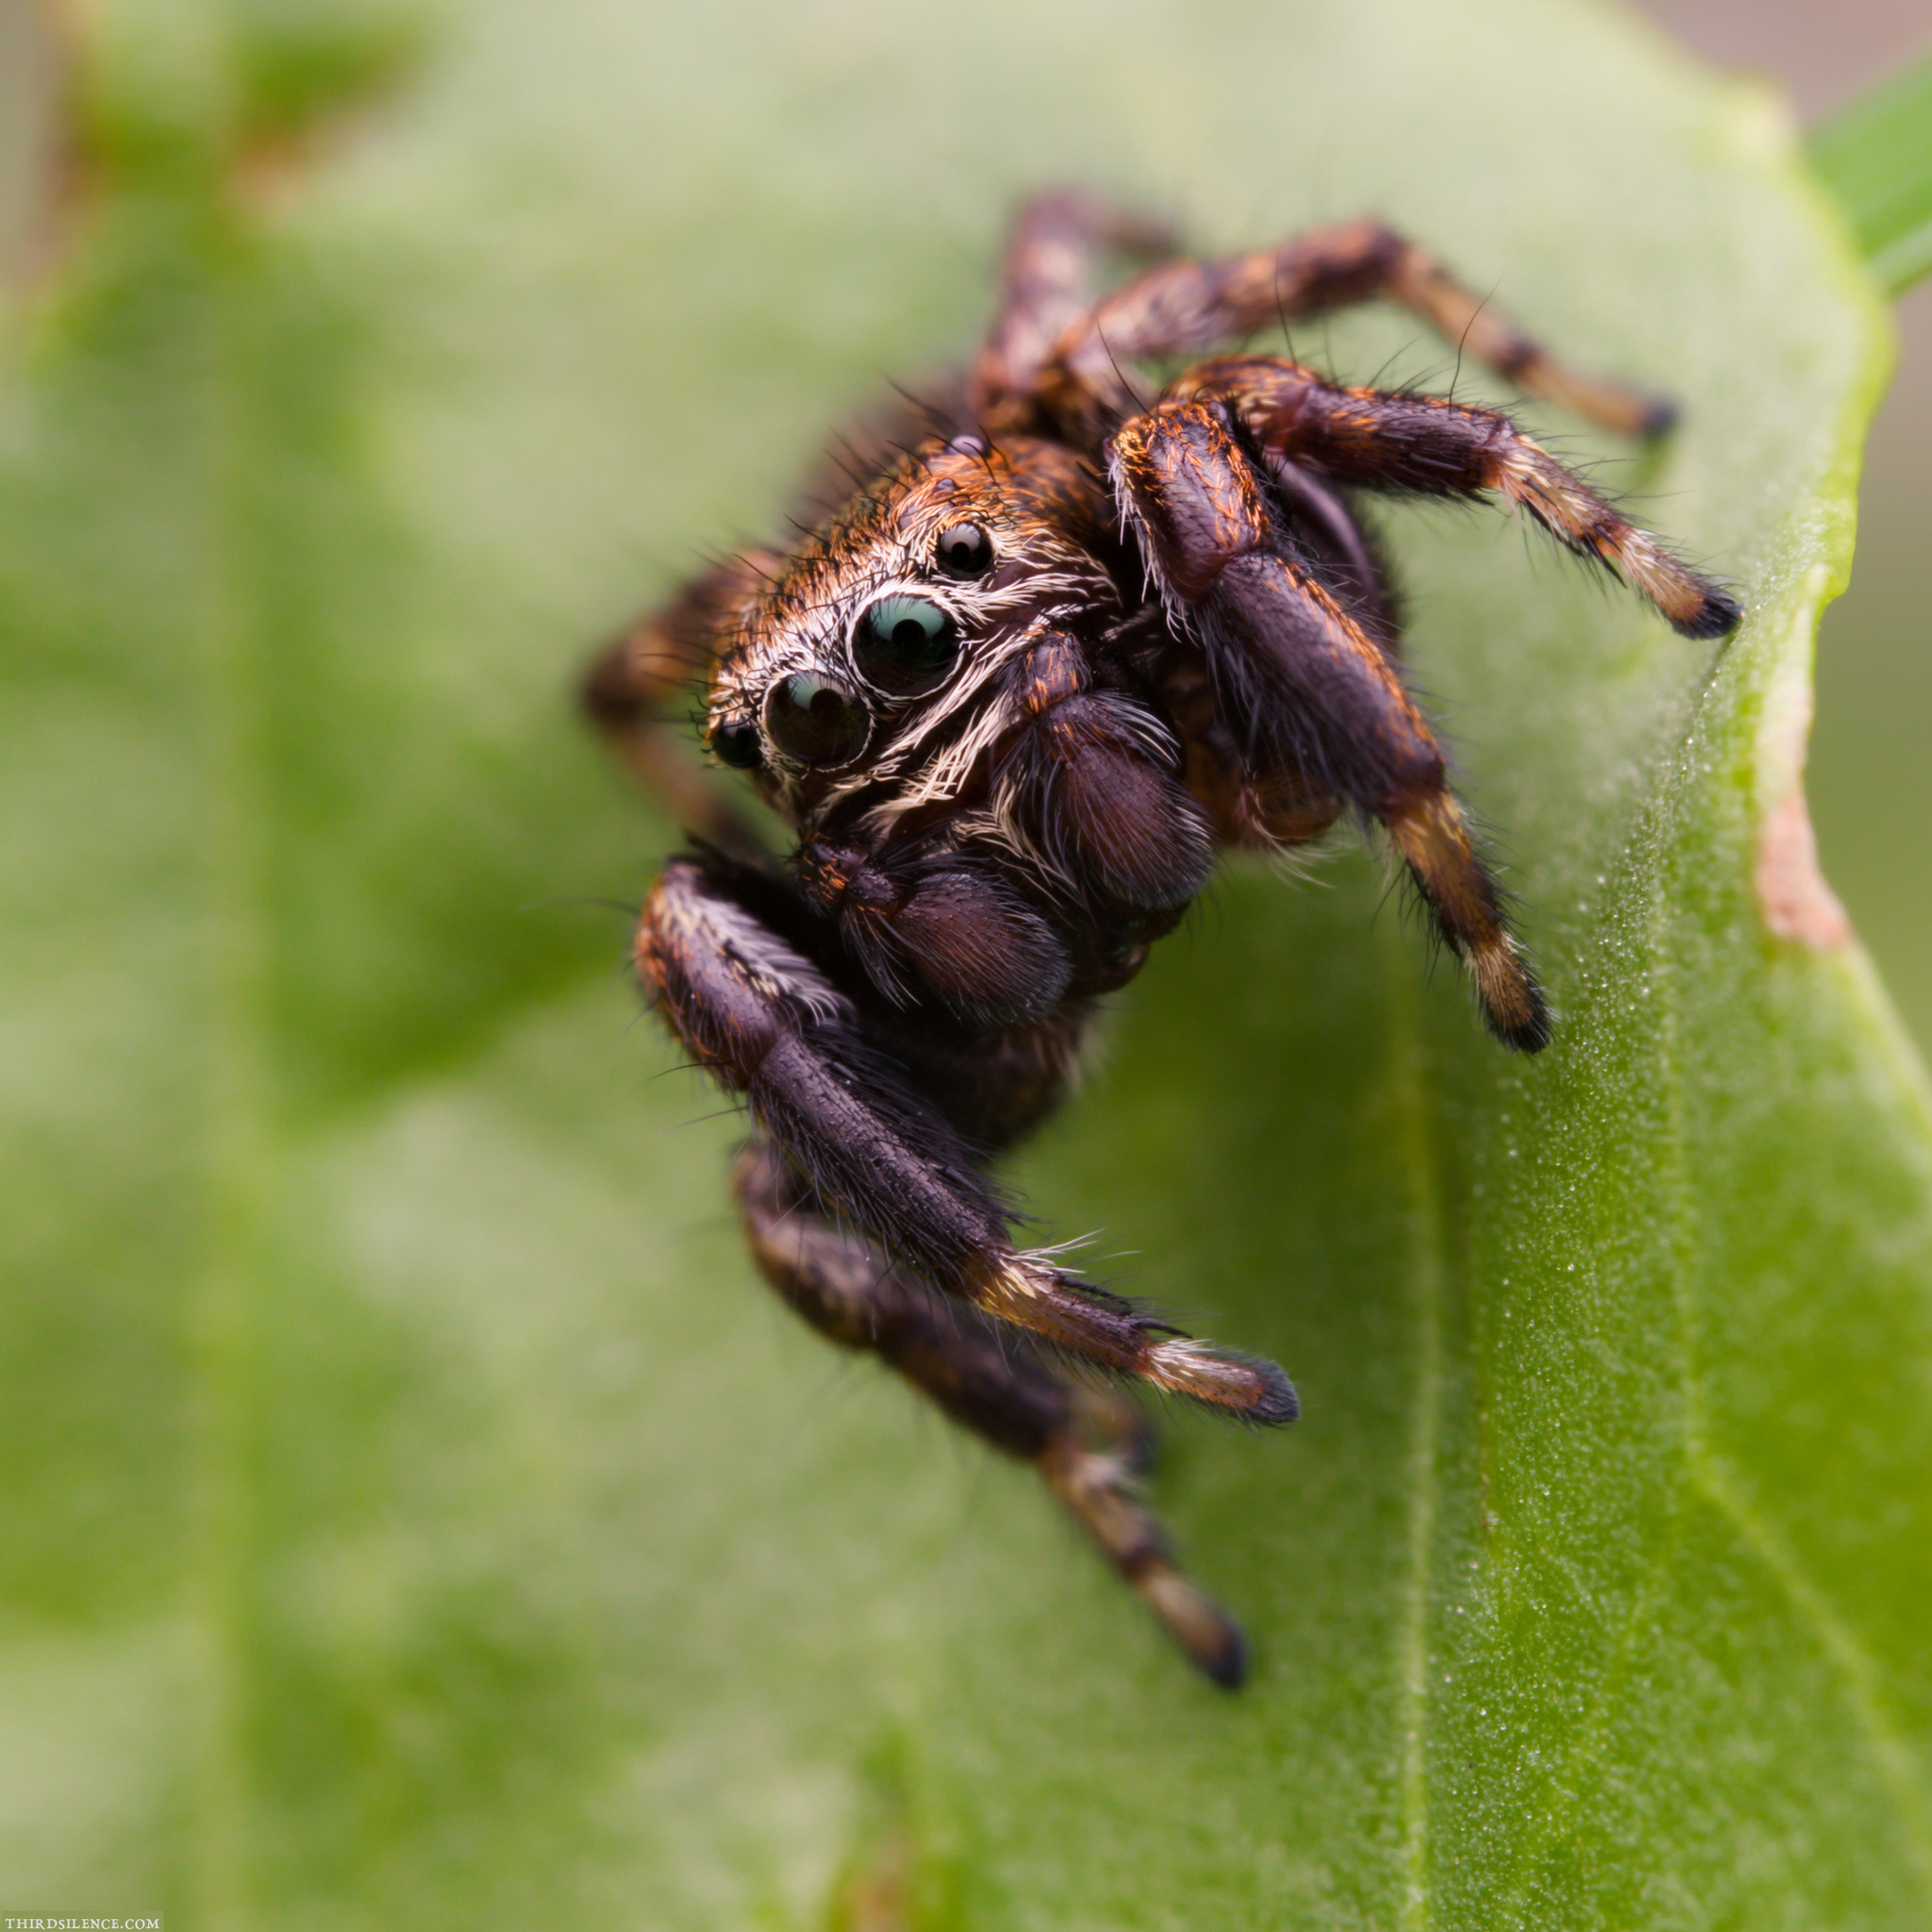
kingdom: Animalia
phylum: Arthropoda
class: Arachnida
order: Araneae
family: Salticidae
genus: Evarcha
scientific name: Evarcha arcuata
